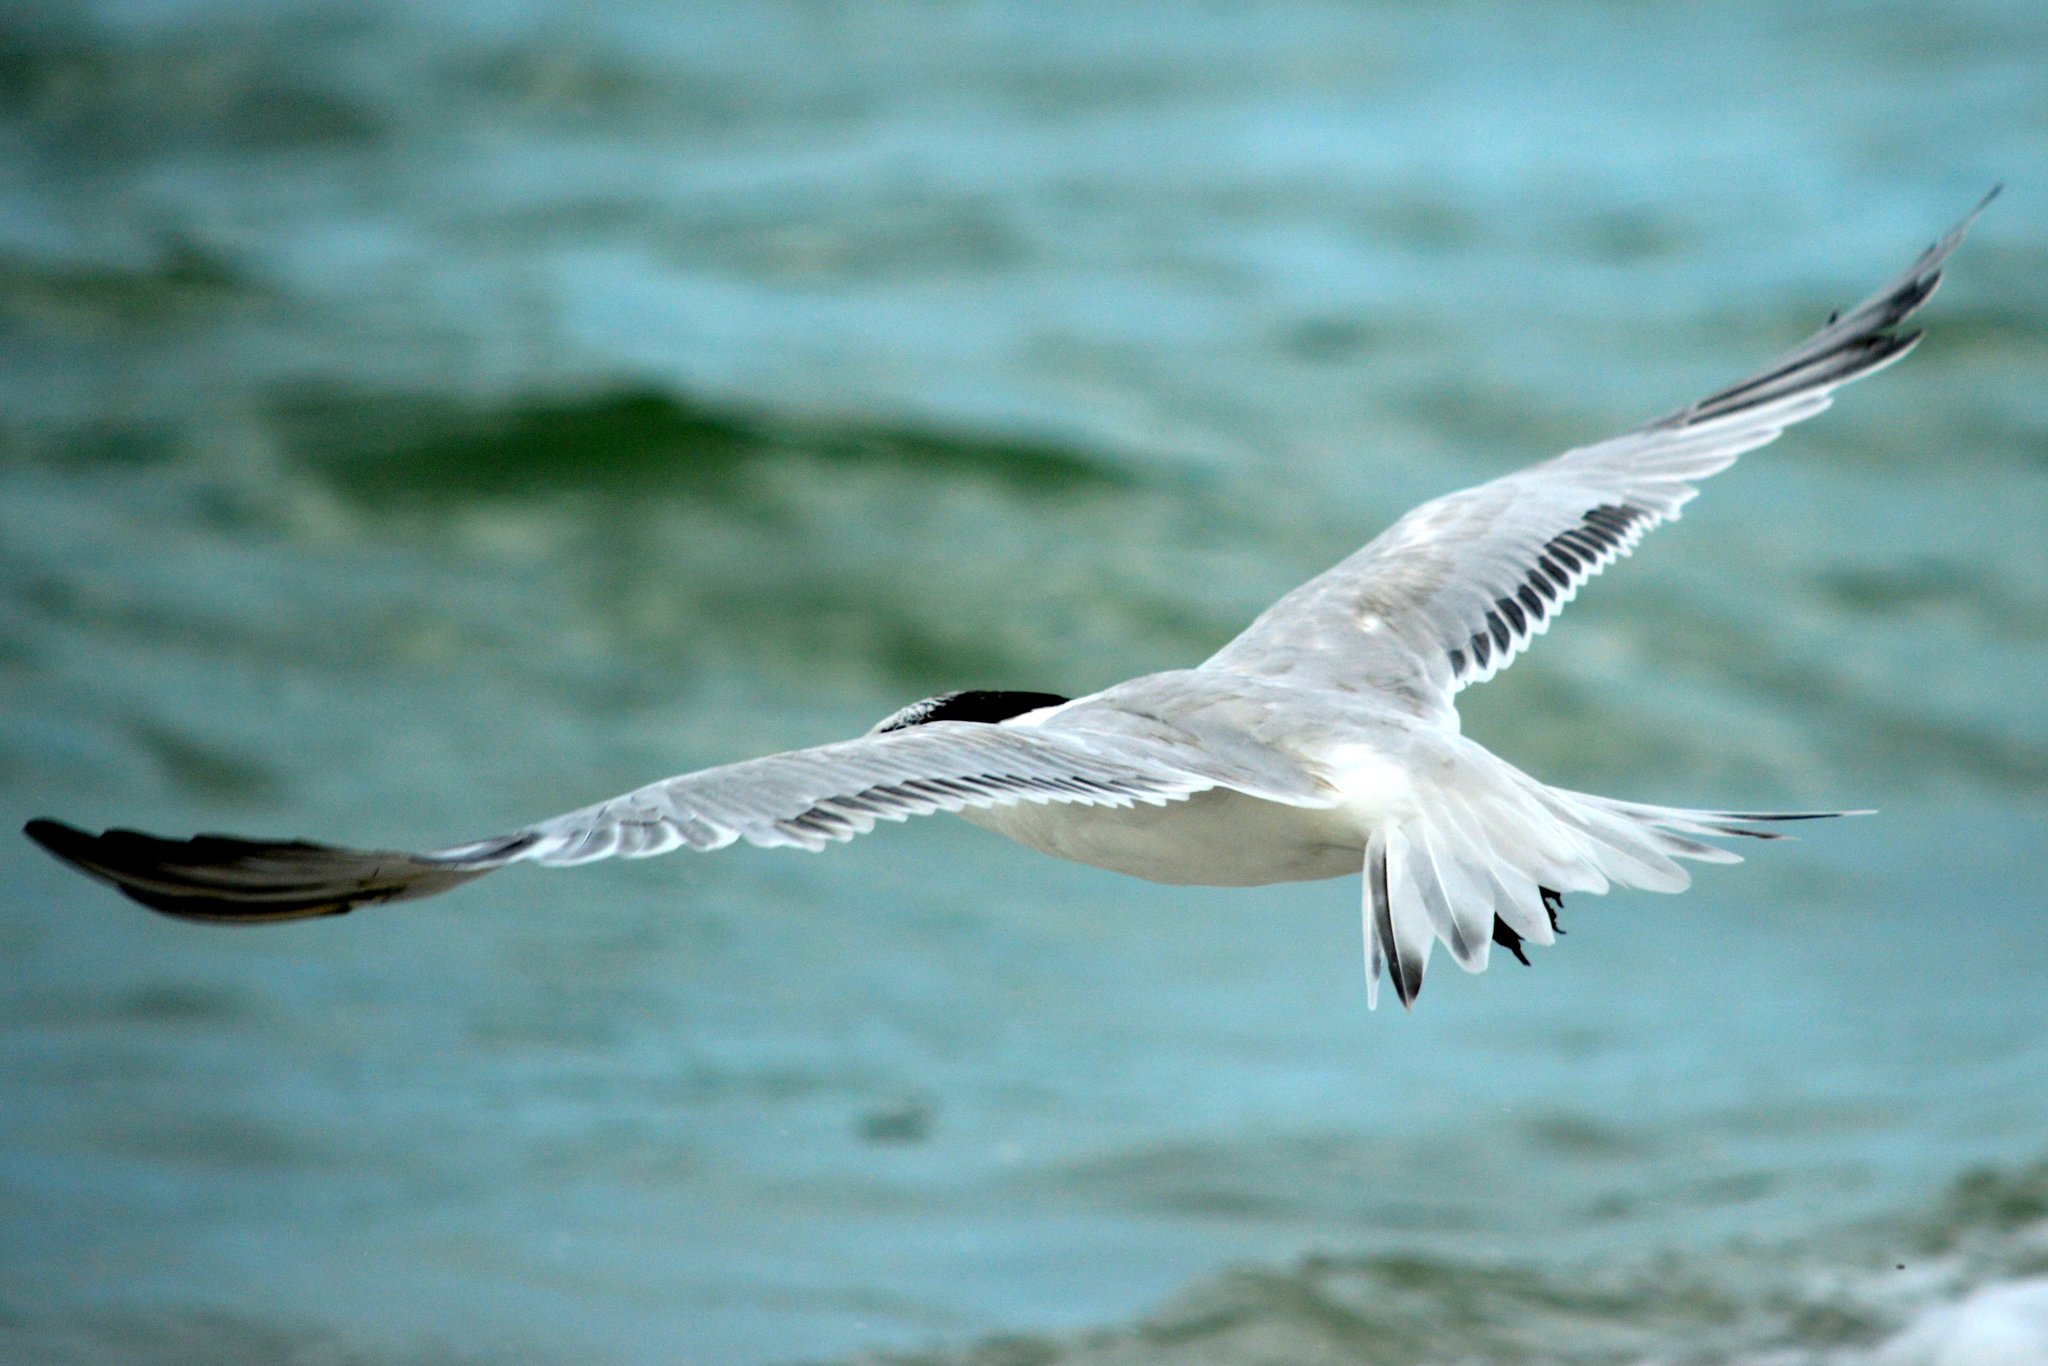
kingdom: Animalia
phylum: Chordata
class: Aves
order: Charadriiformes
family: Laridae
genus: Sternula
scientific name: Sternula antillarum
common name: Least tern
